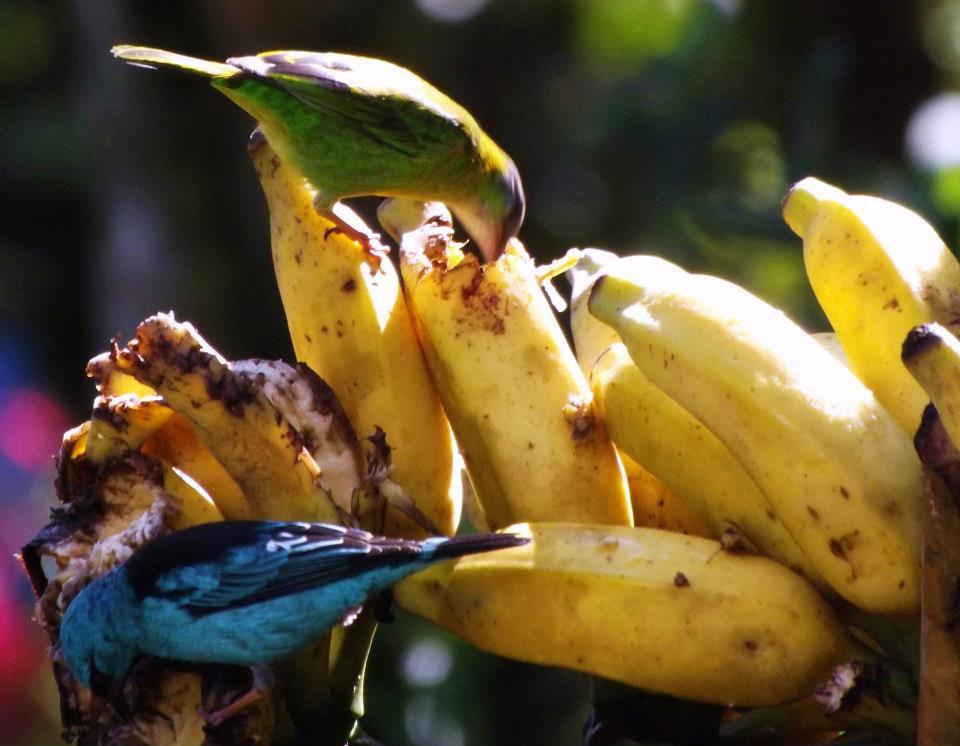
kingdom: Animalia
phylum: Chordata
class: Aves
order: Passeriformes
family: Thraupidae
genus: Dacnis
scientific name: Dacnis cayana
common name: Blue dacnis
